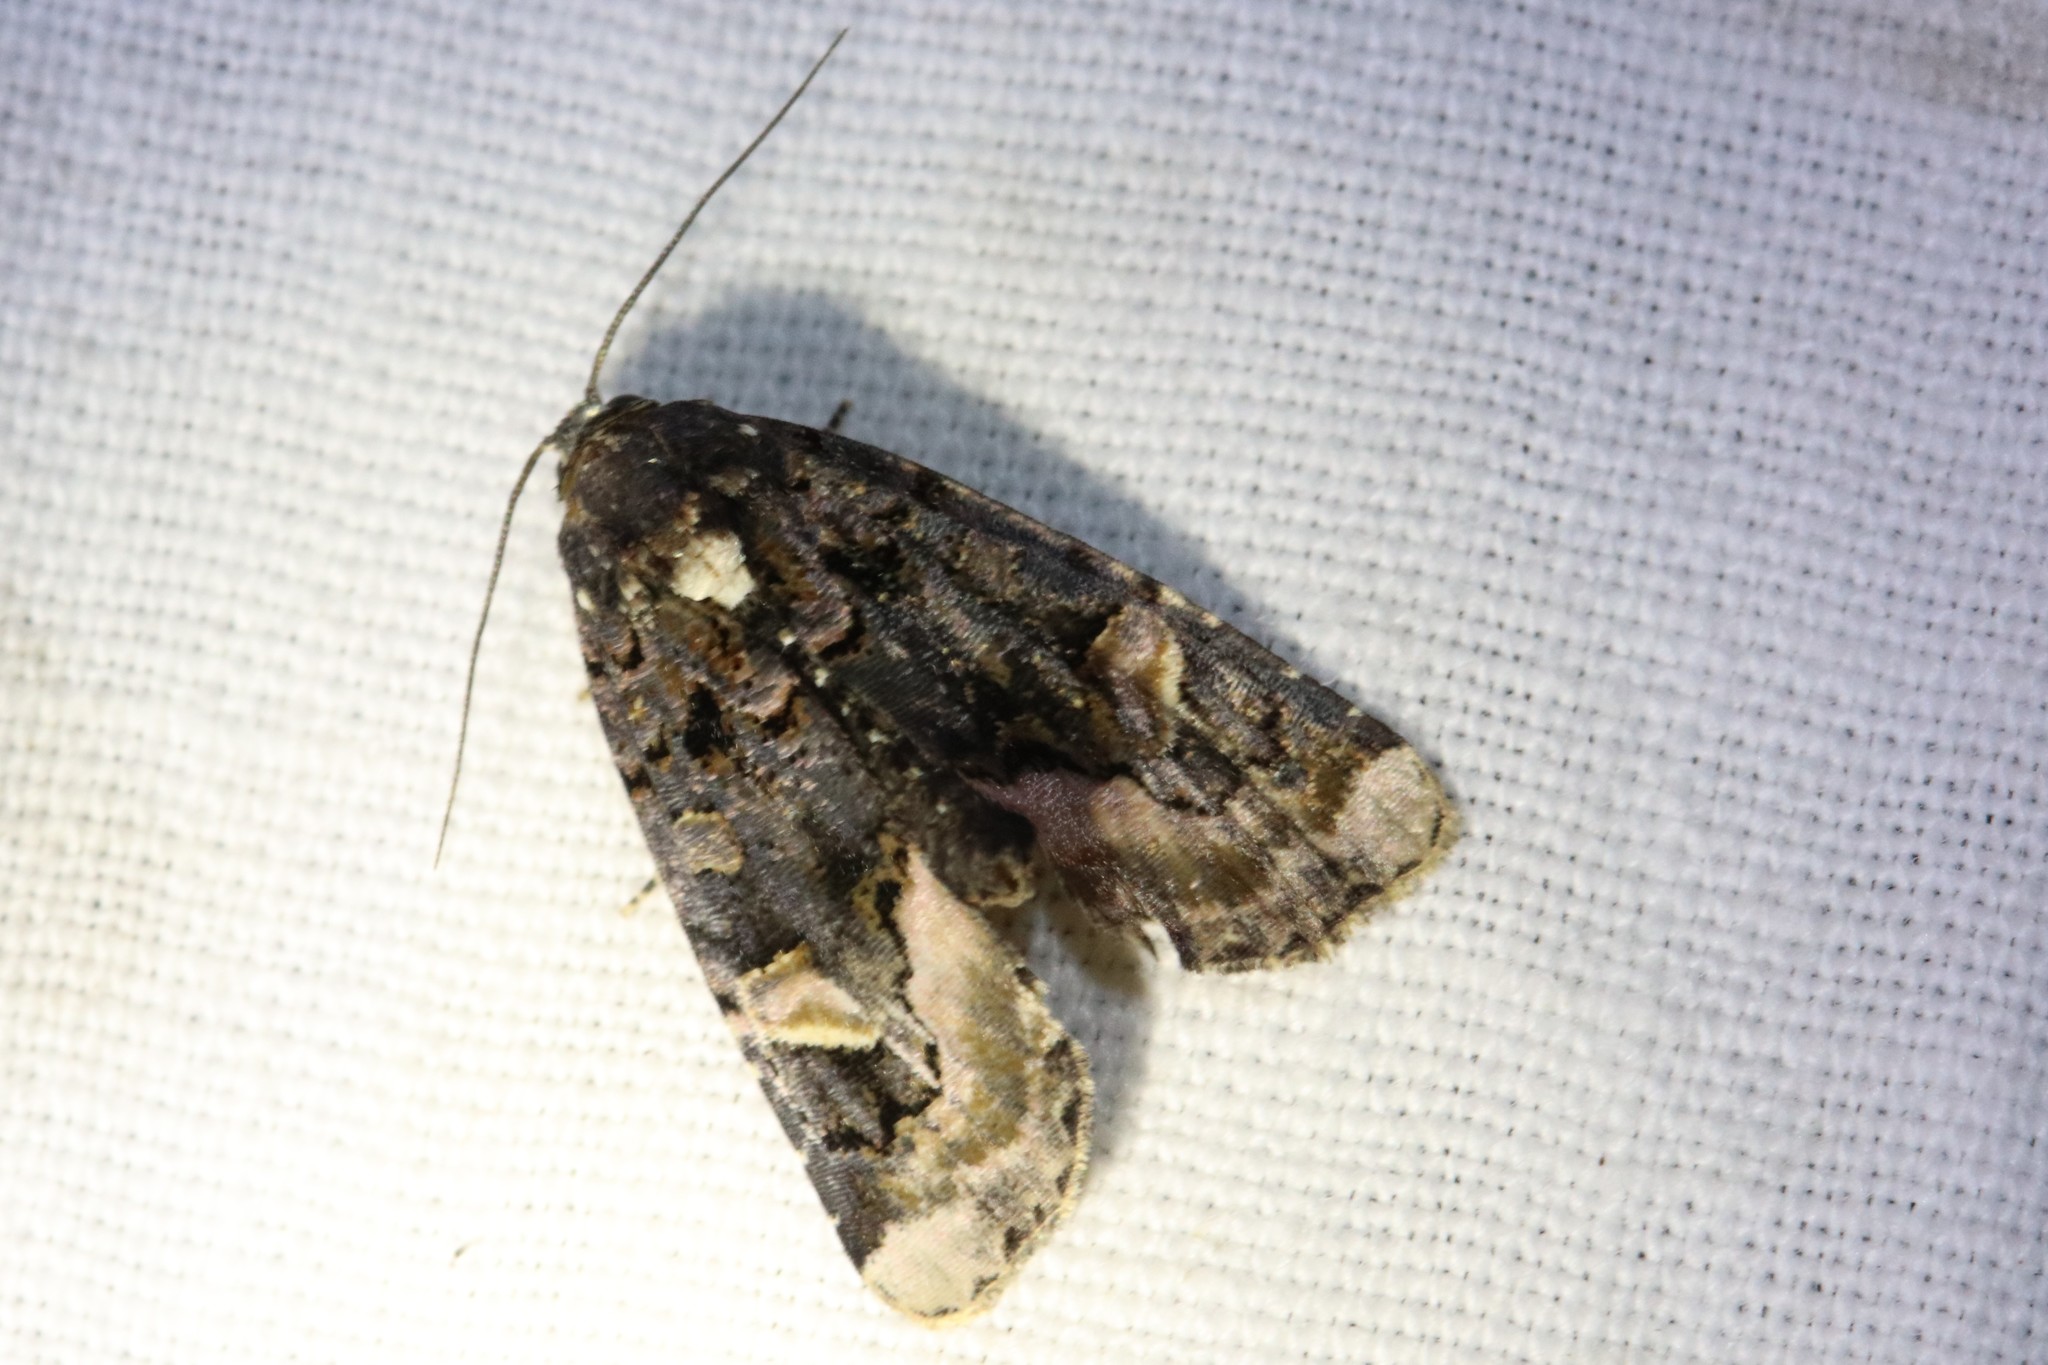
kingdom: Animalia
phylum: Arthropoda
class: Insecta
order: Lepidoptera
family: Noctuidae
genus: Homophoberia
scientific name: Homophoberia apicosa
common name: Black wedge-spot
